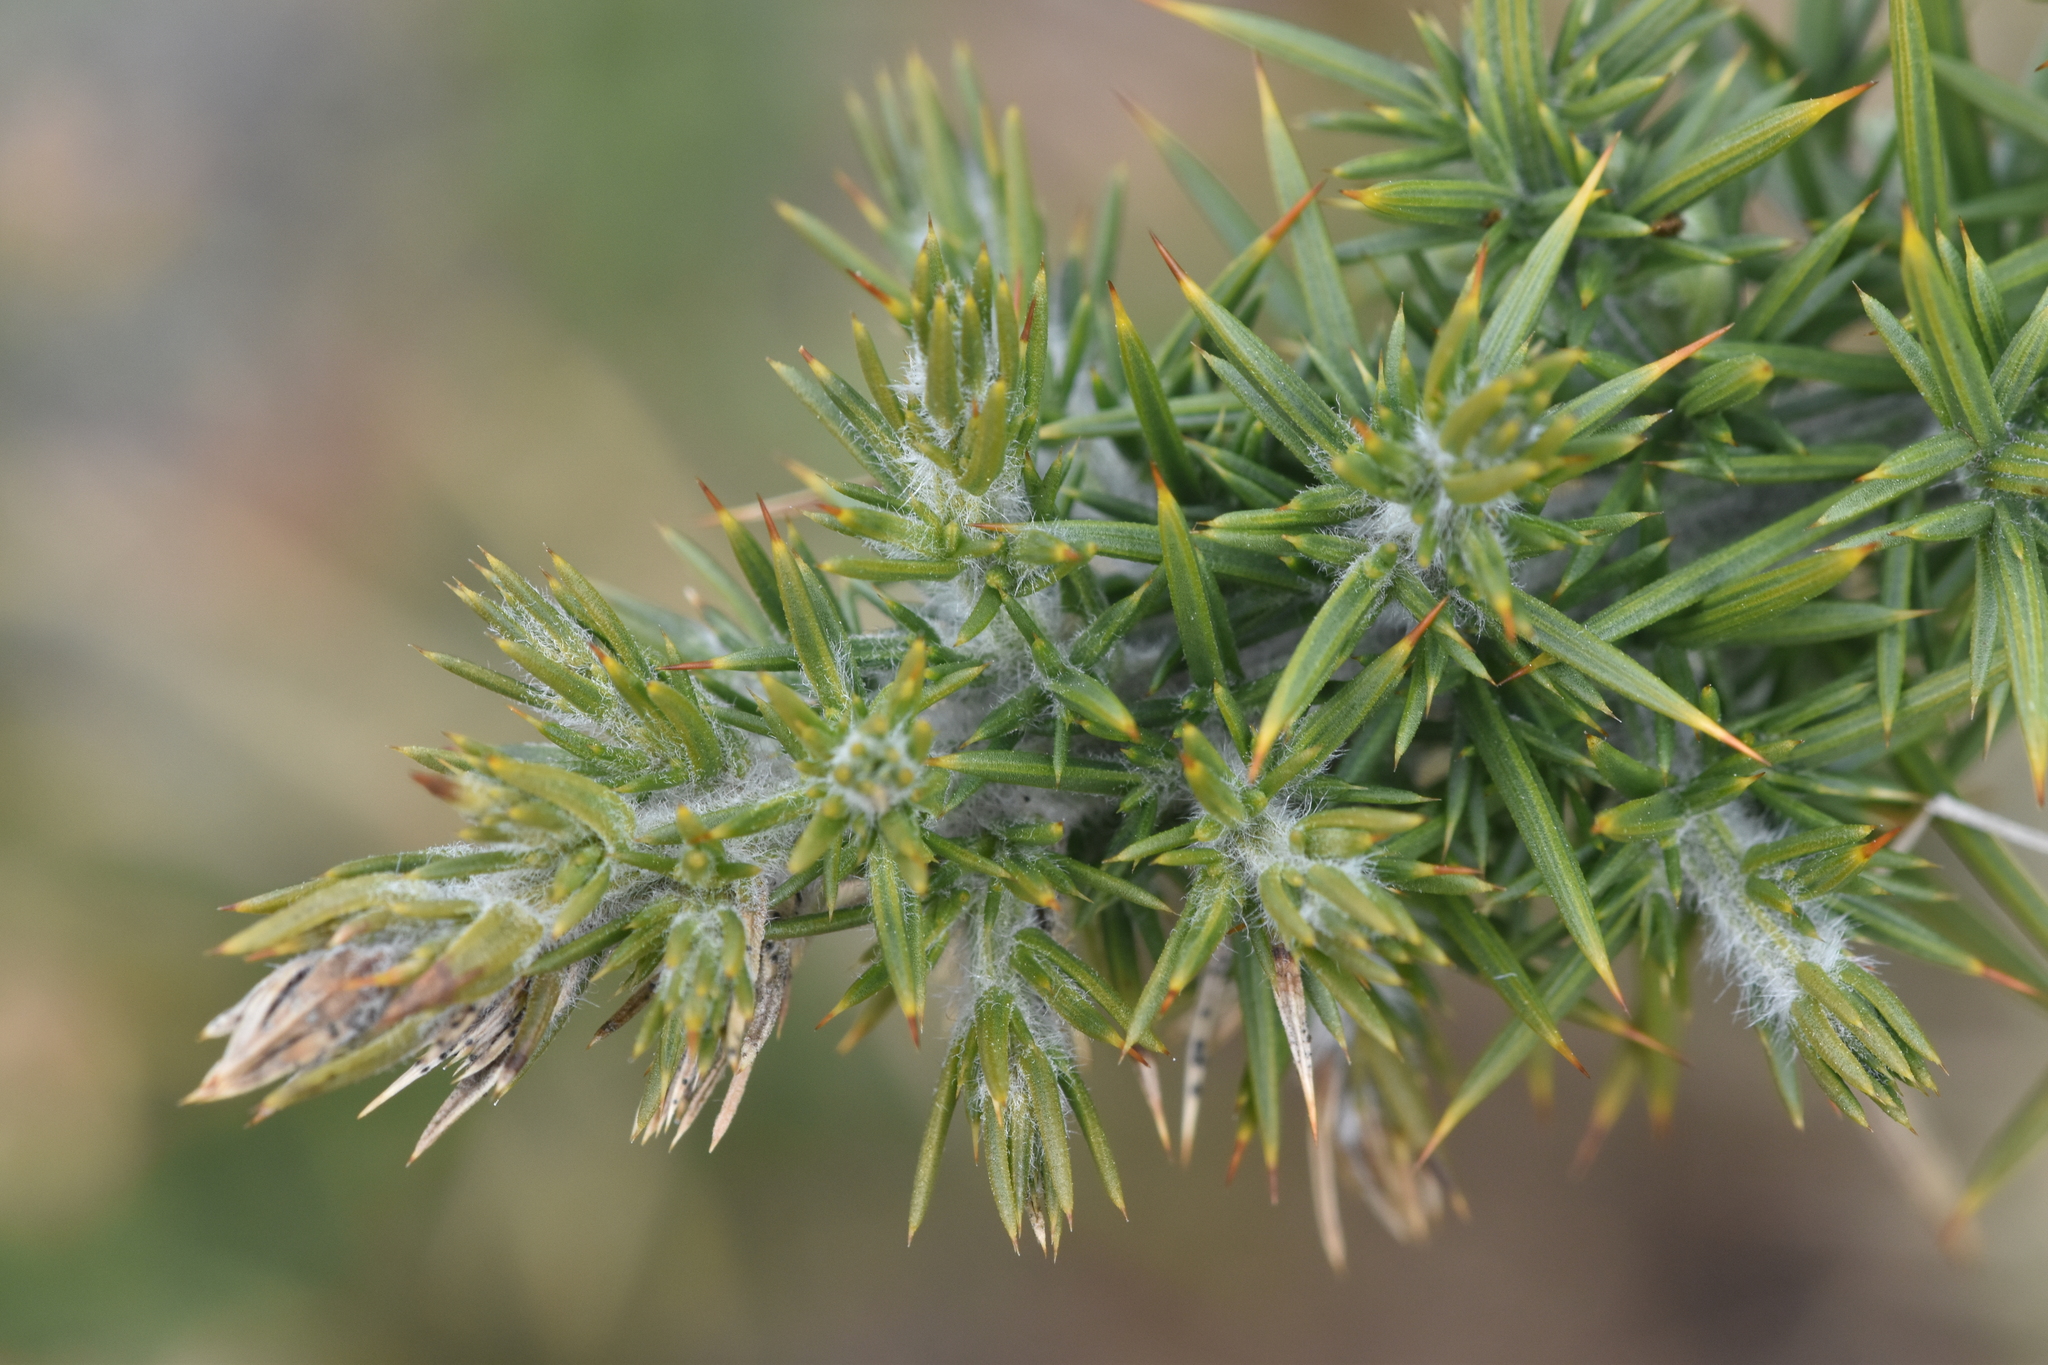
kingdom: Plantae
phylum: Tracheophyta
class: Magnoliopsida
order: Fabales
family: Fabaceae
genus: Ulex
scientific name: Ulex europaeus
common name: Common gorse
